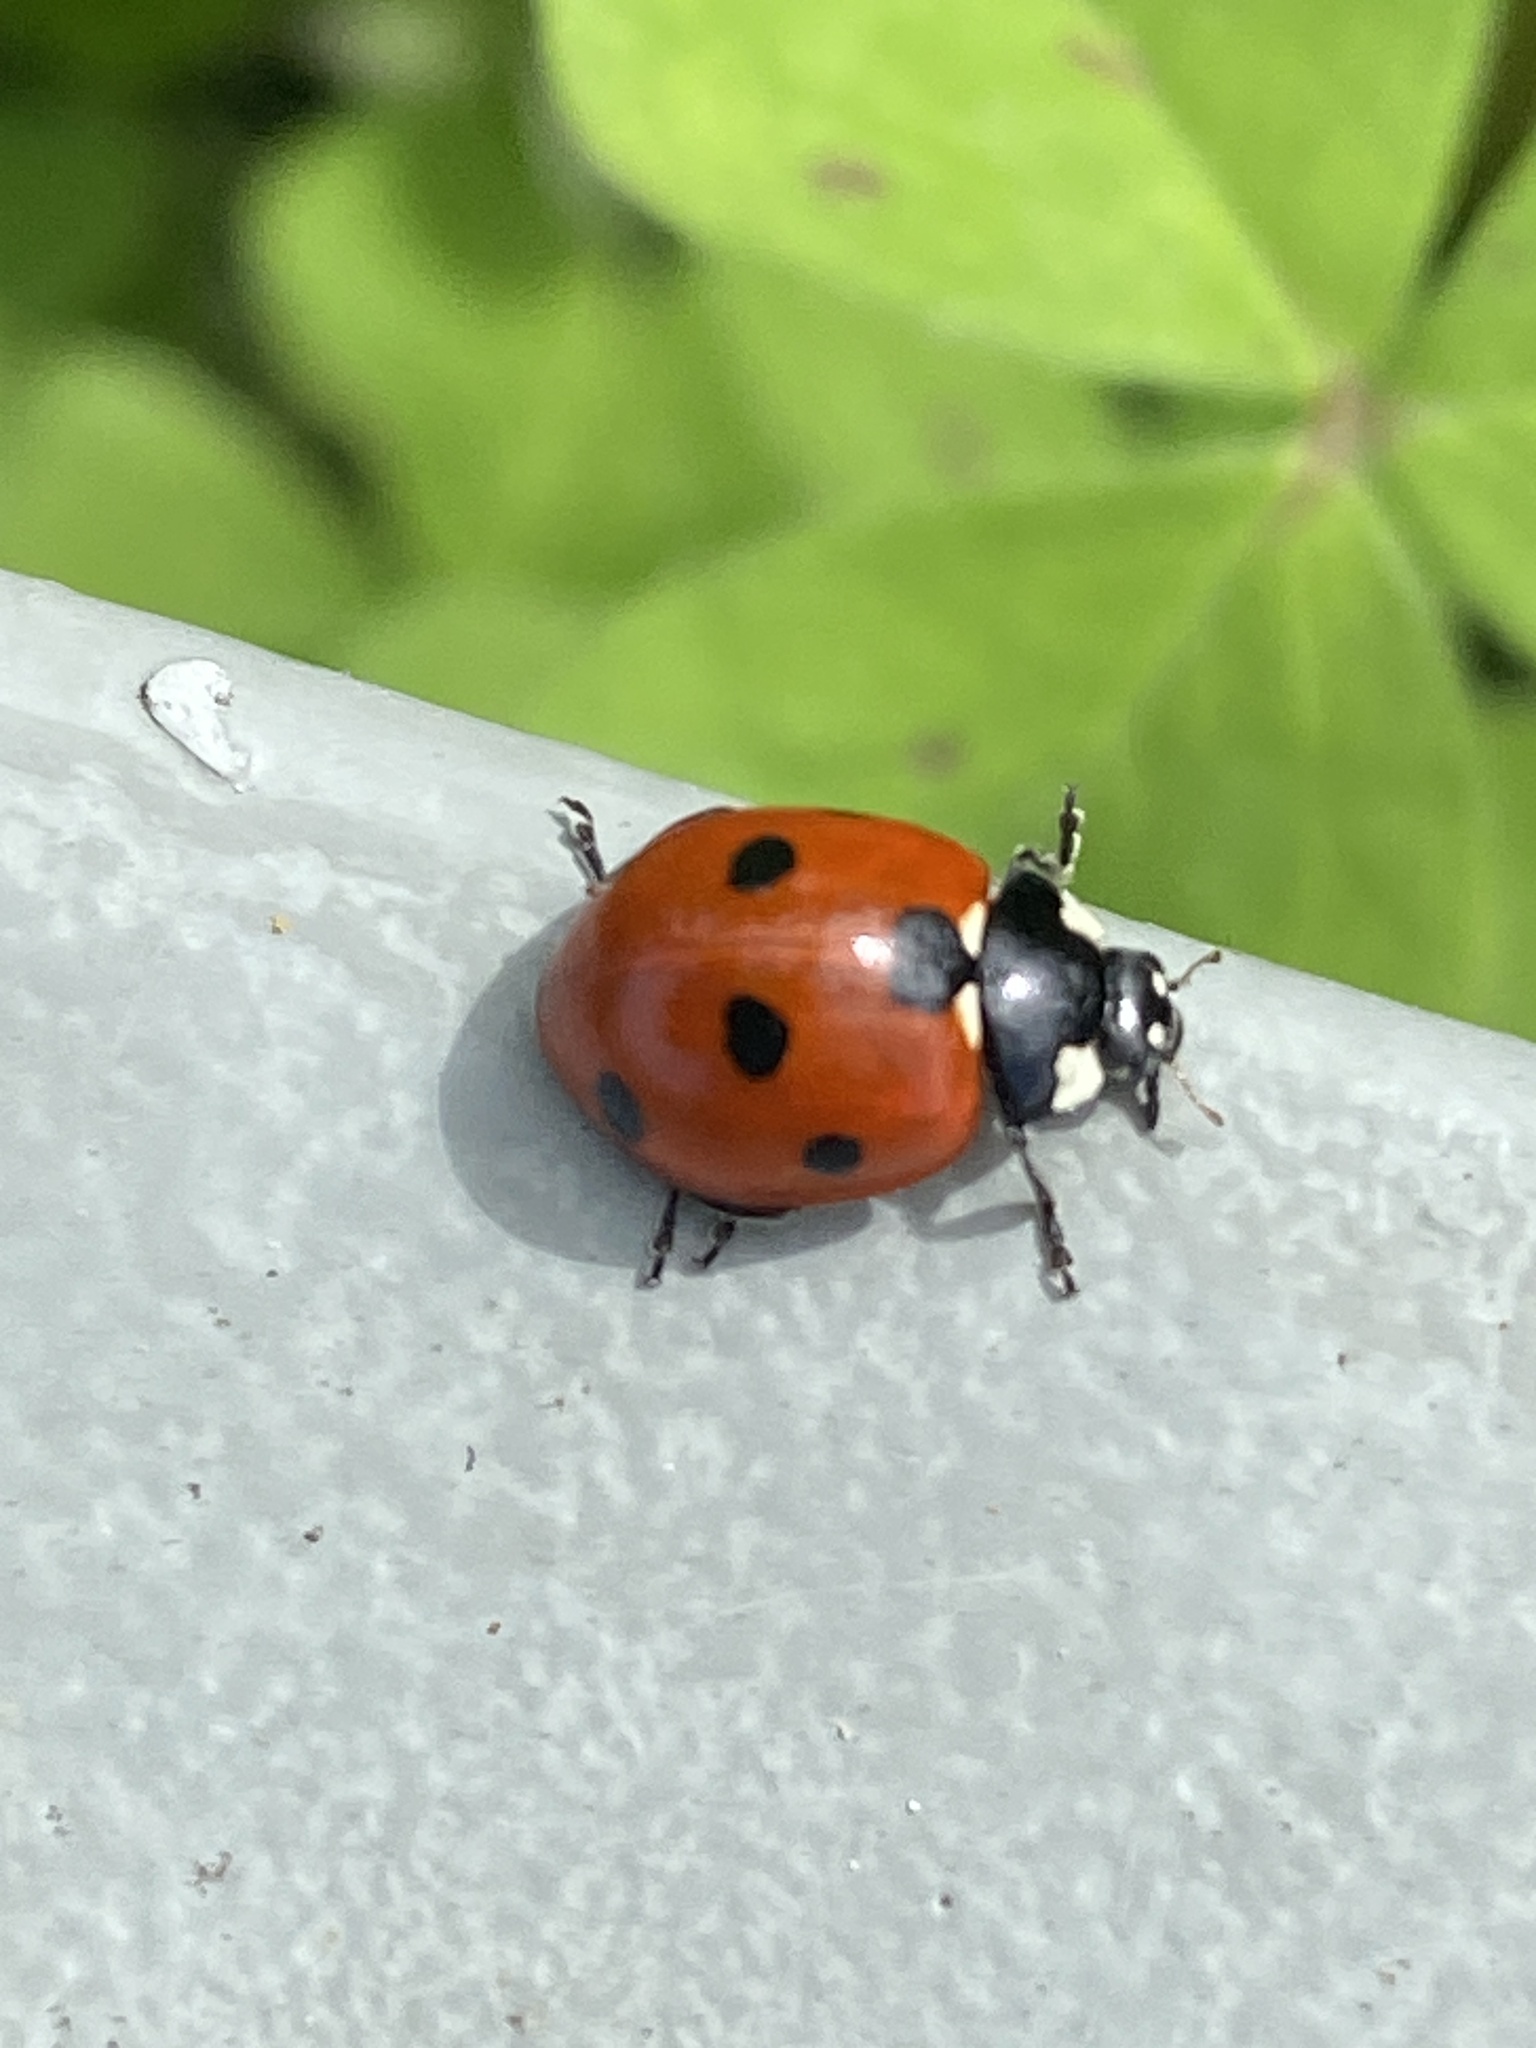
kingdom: Animalia
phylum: Arthropoda
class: Insecta
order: Coleoptera
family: Coccinellidae
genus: Coccinella
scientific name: Coccinella septempunctata
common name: Sevenspotted lady beetle
